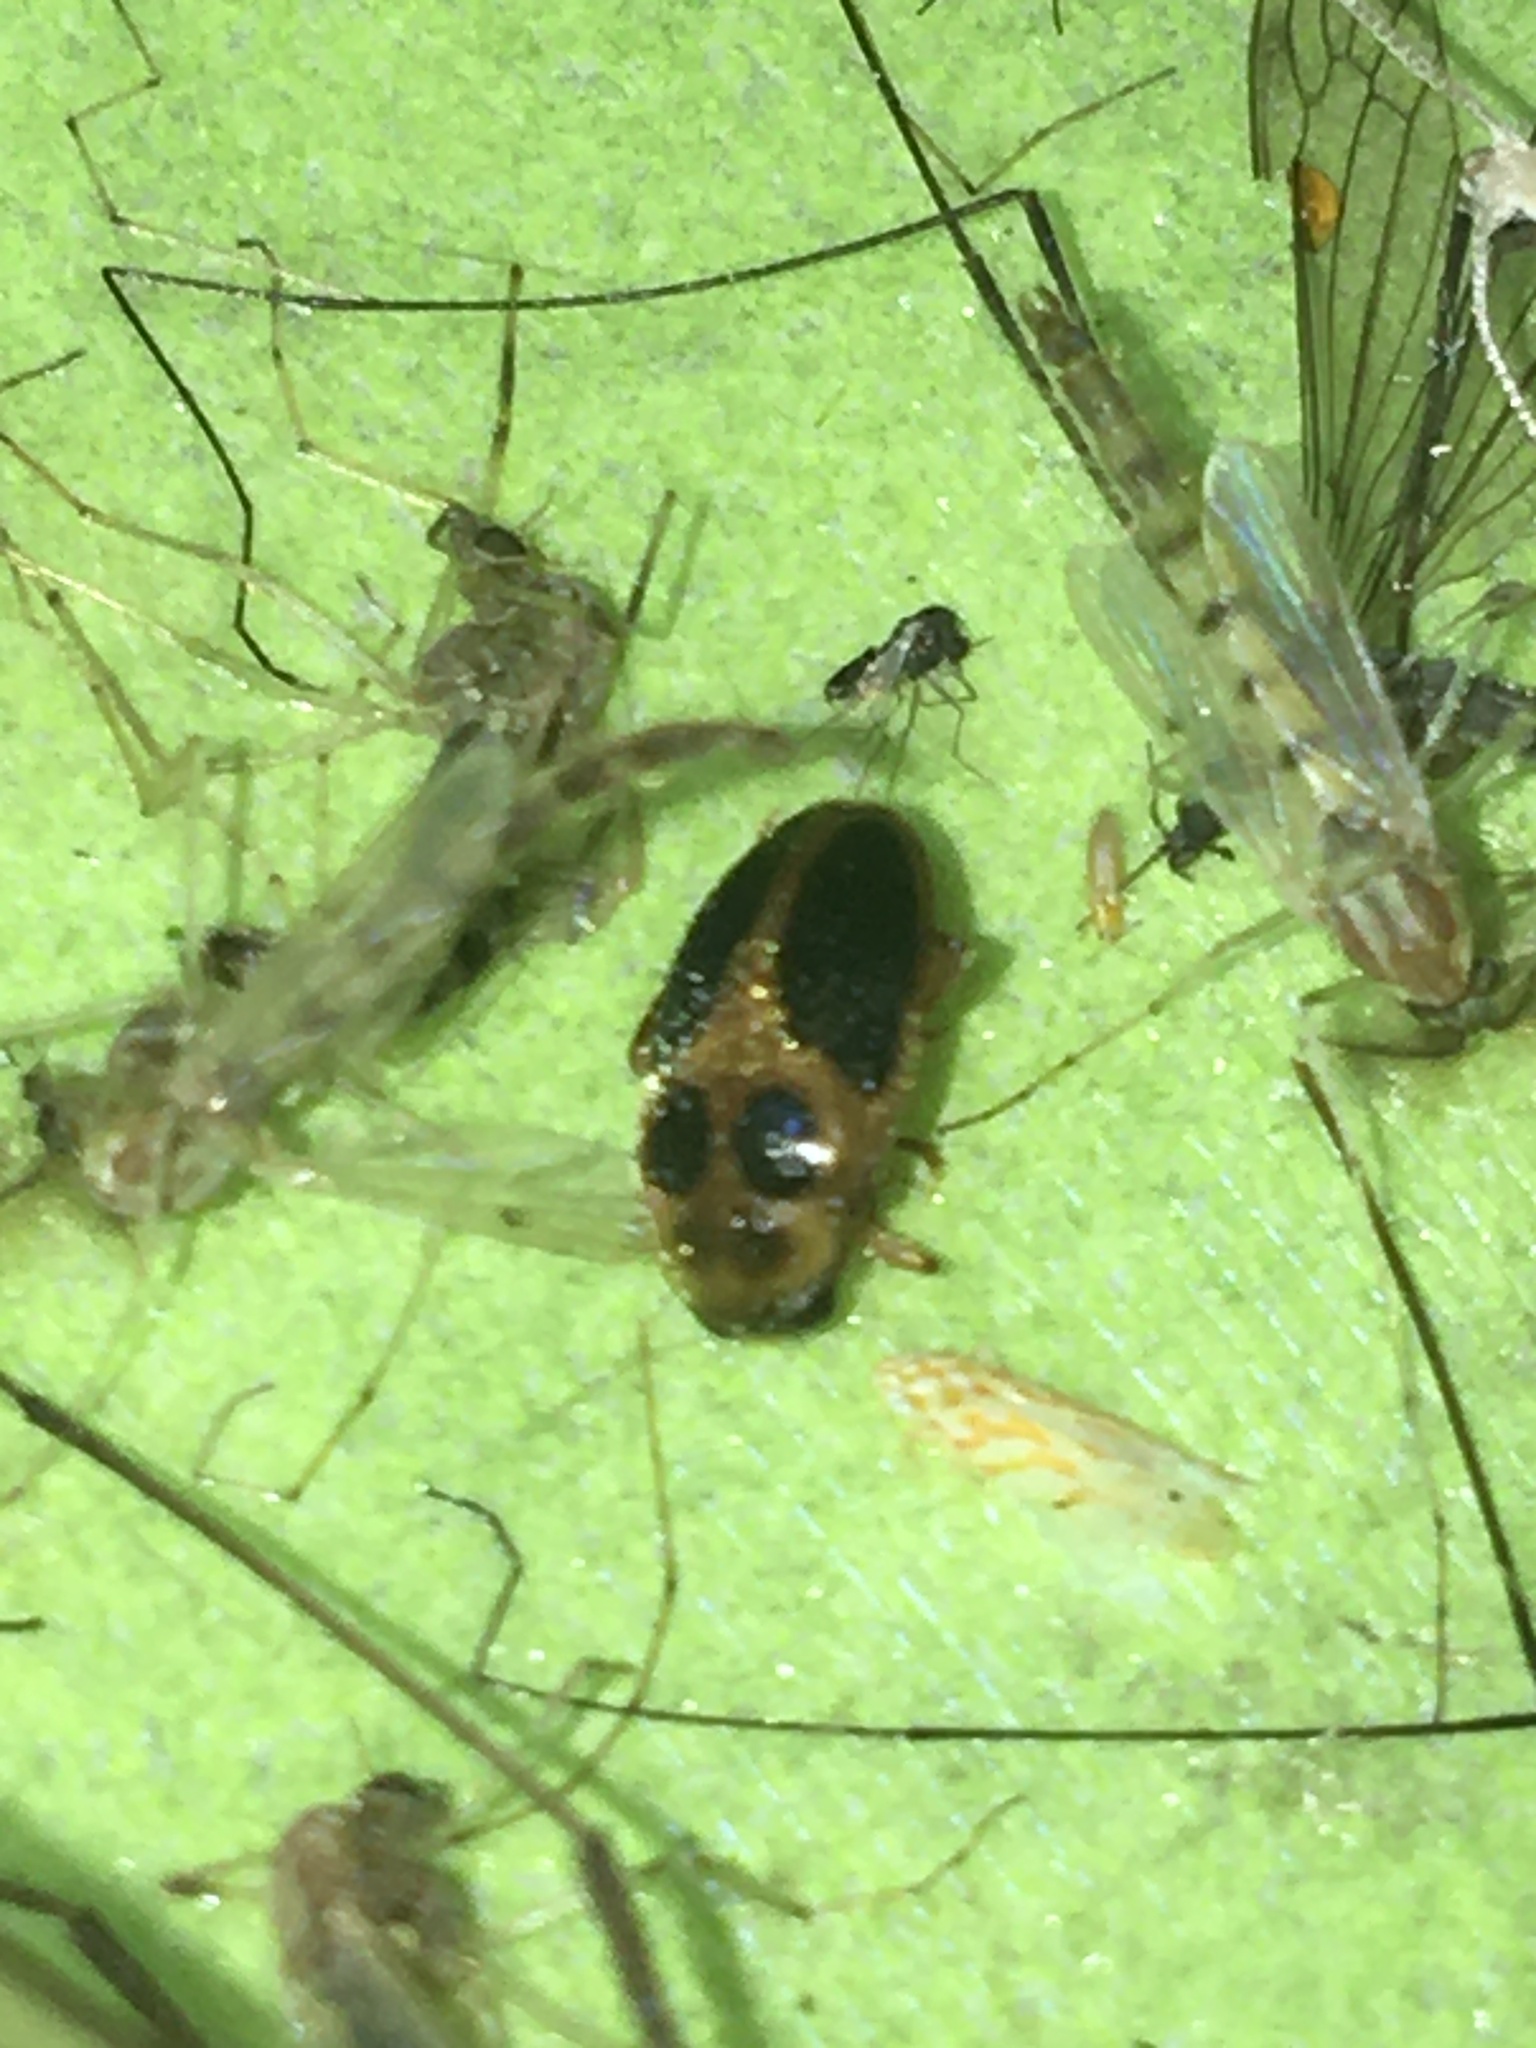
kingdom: Animalia
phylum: Arthropoda
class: Insecta
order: Coleoptera
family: Scirtidae
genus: Sacodes
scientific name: Sacodes pulchella
